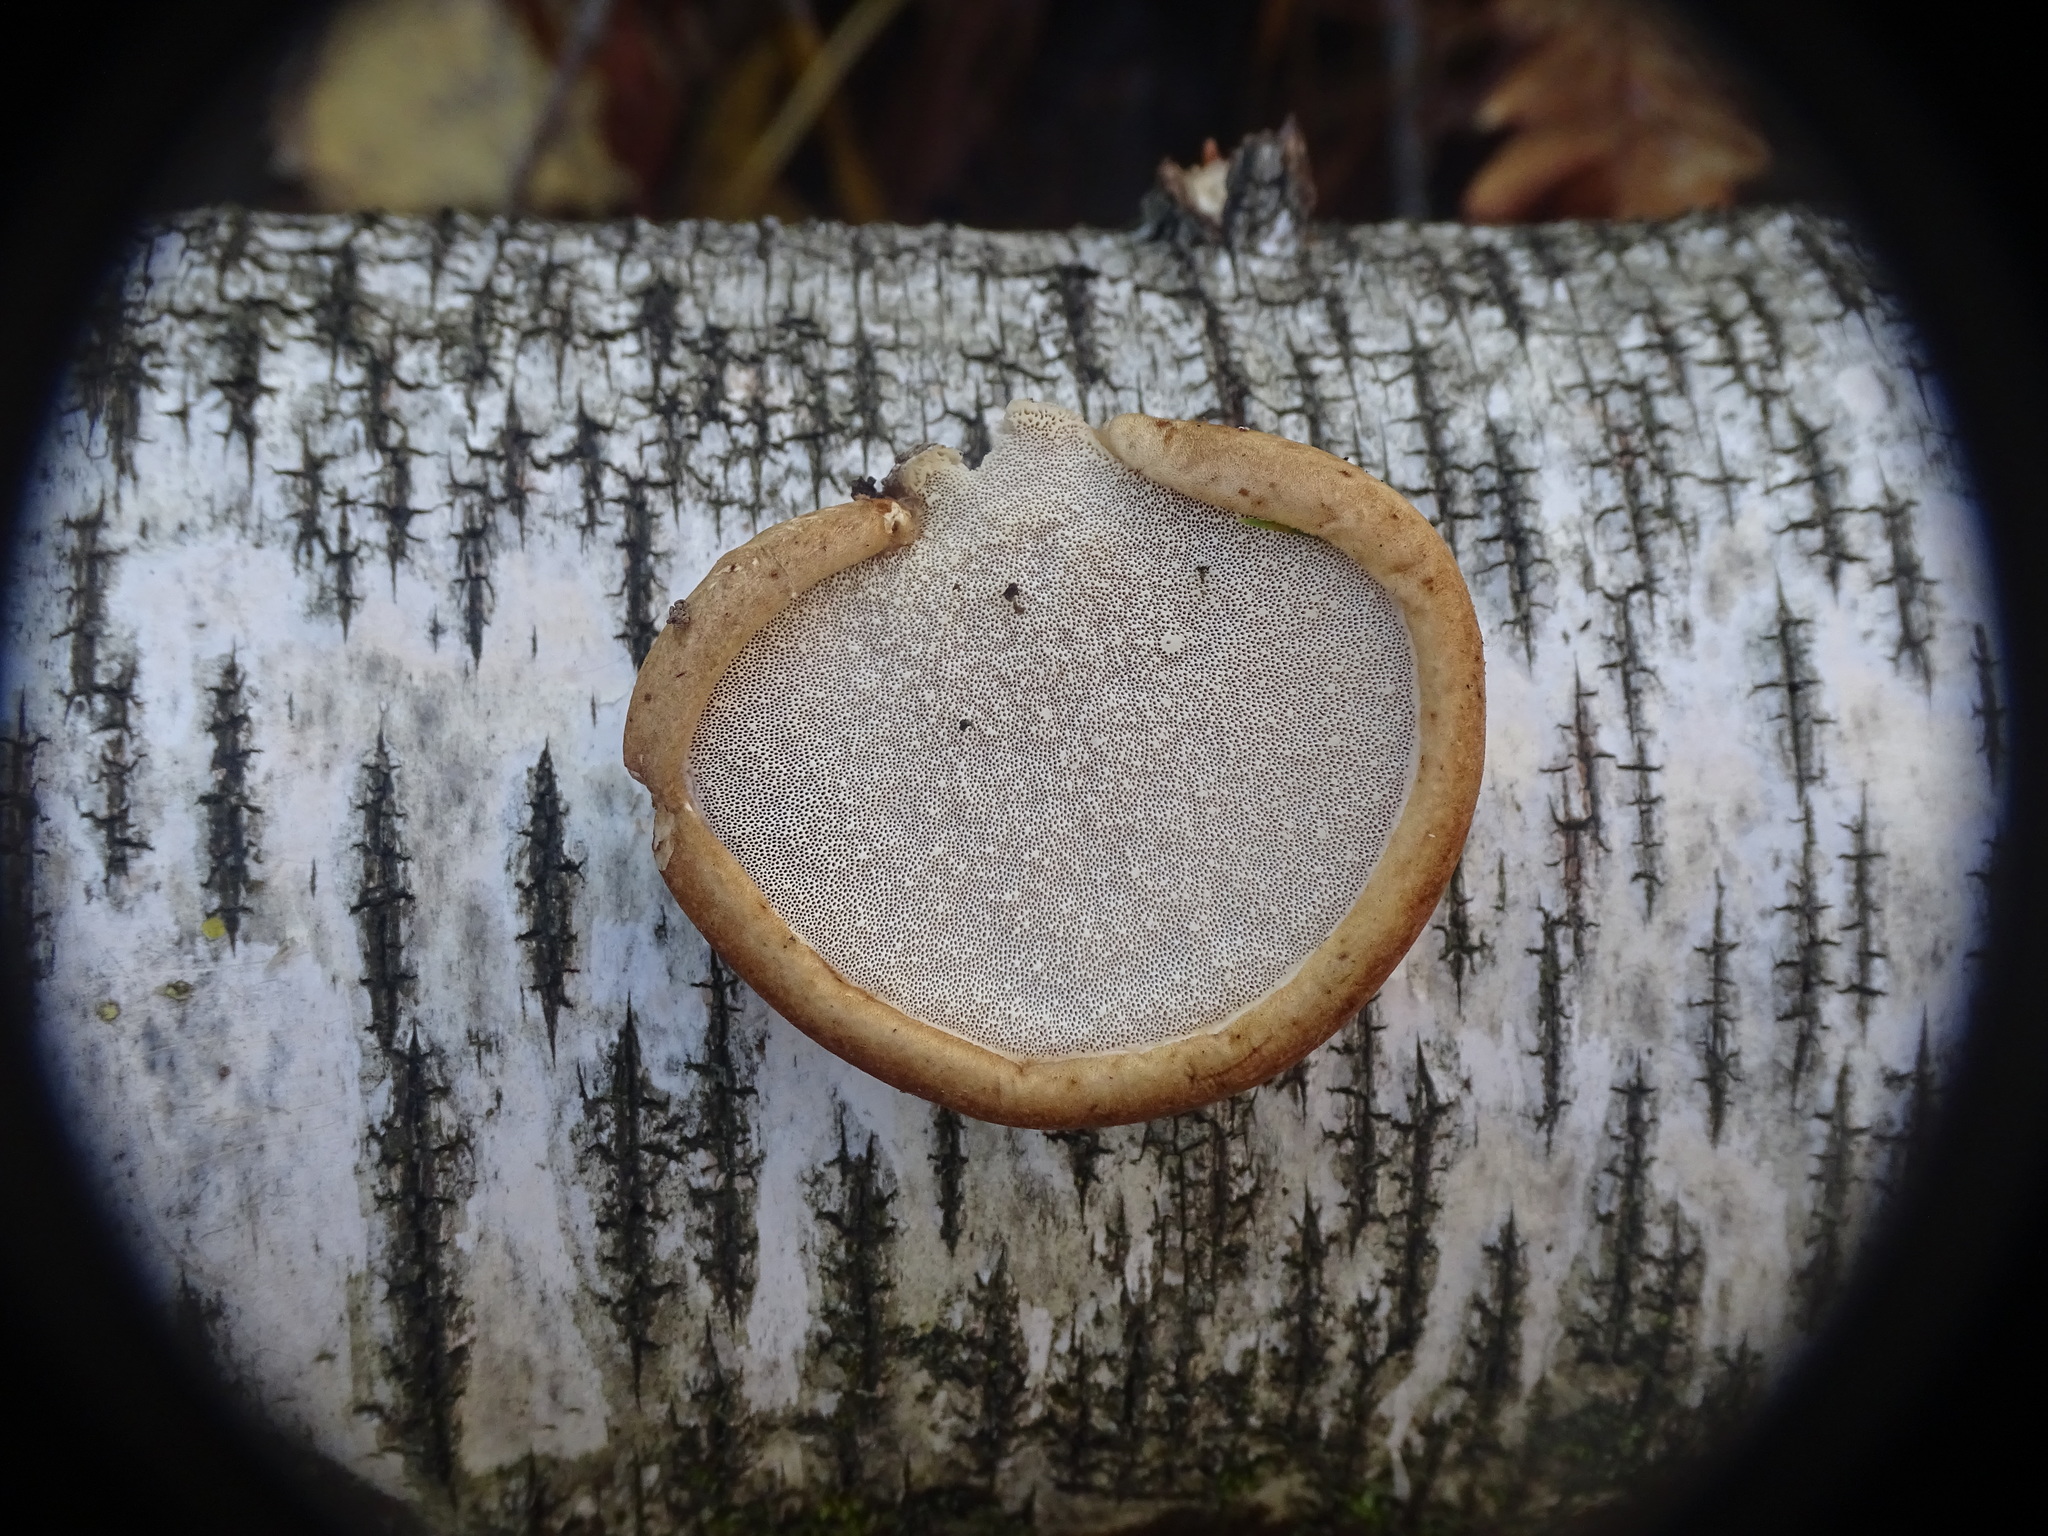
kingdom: Fungi
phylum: Basidiomycota
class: Agaricomycetes
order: Polyporales
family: Fomitopsidaceae
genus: Fomitopsis
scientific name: Fomitopsis betulina
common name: Birch polypore
